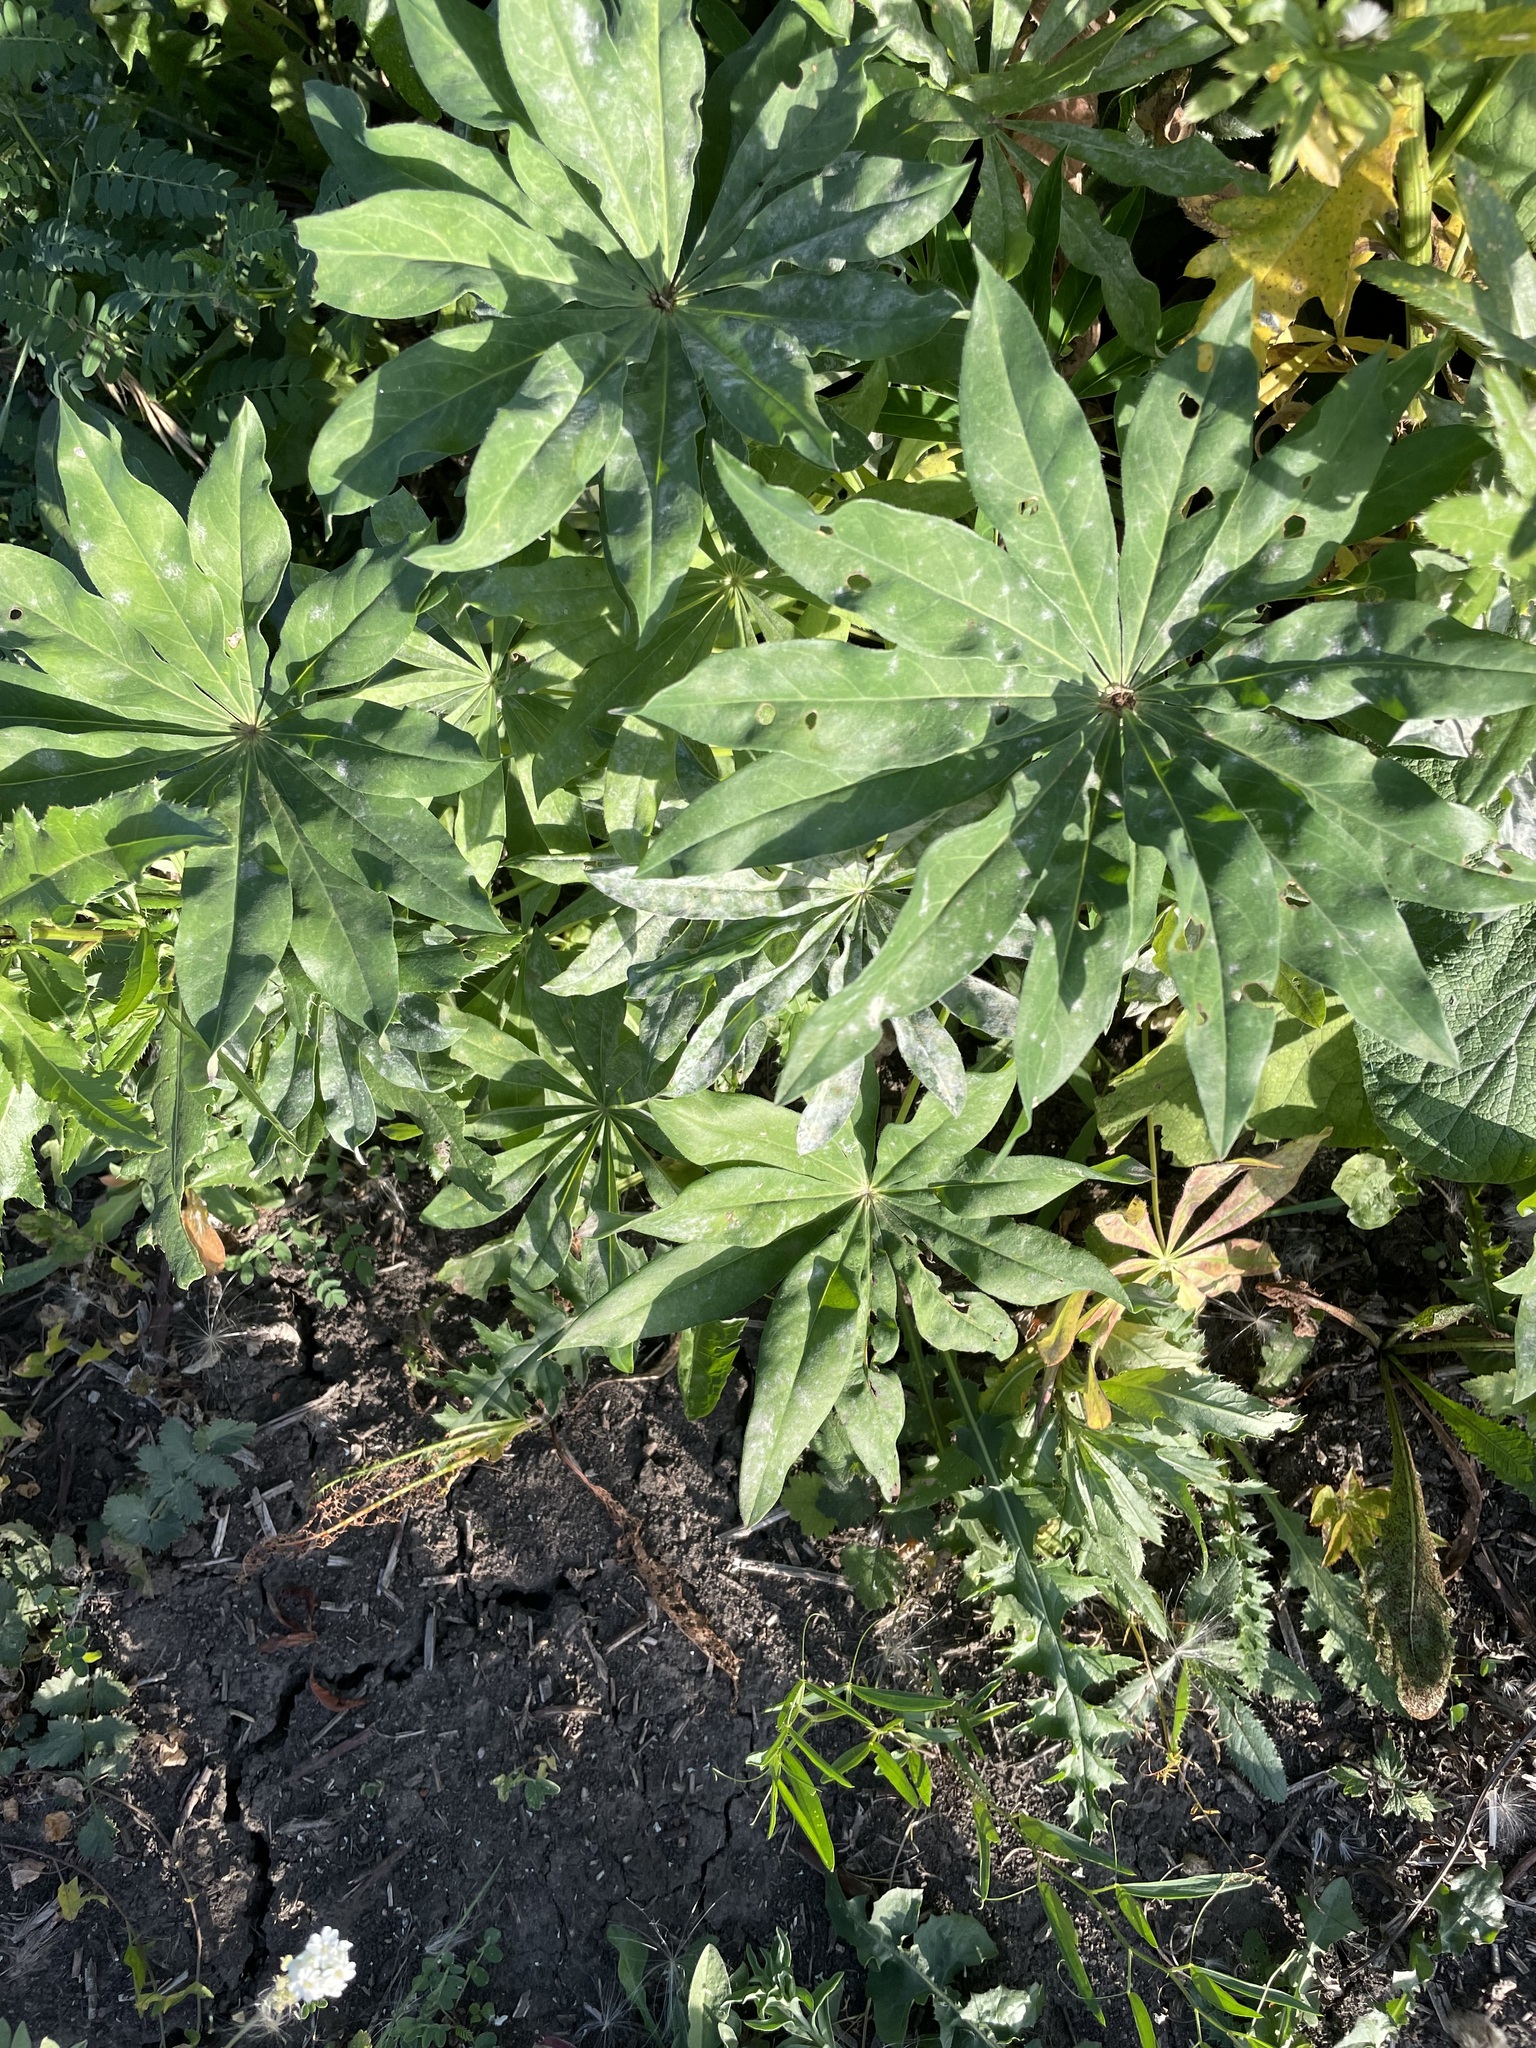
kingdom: Plantae
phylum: Tracheophyta
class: Magnoliopsida
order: Fabales
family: Fabaceae
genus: Lupinus
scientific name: Lupinus polyphyllus
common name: Garden lupin
